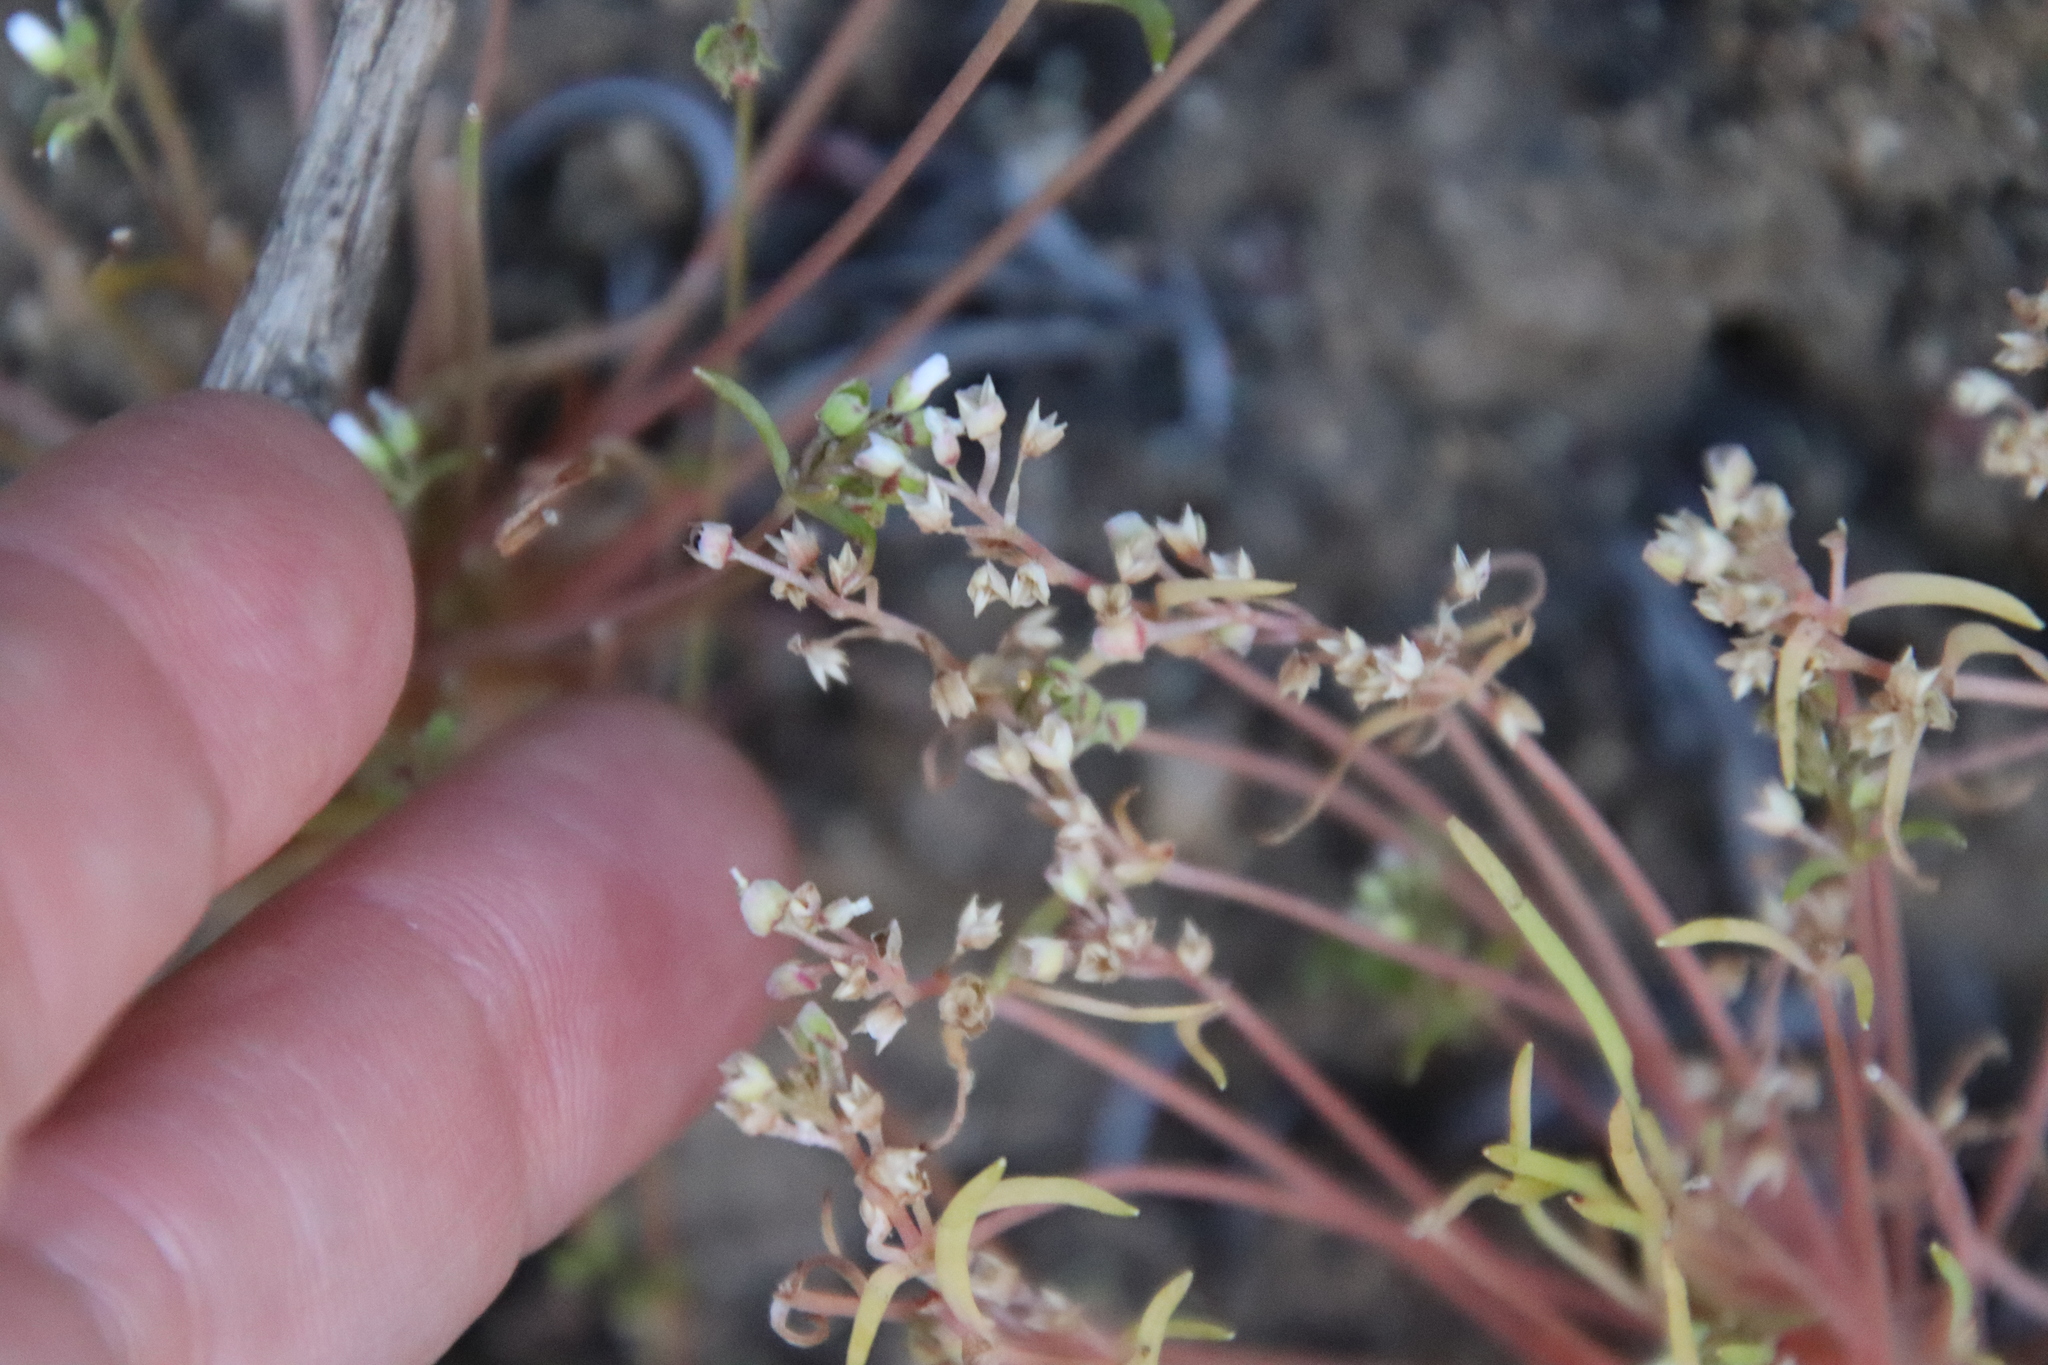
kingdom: Plantae
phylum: Tracheophyta
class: Magnoliopsida
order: Caryophyllales
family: Montiaceae
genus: Claytonia
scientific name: Claytonia parviflora
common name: Indian-lettuce
